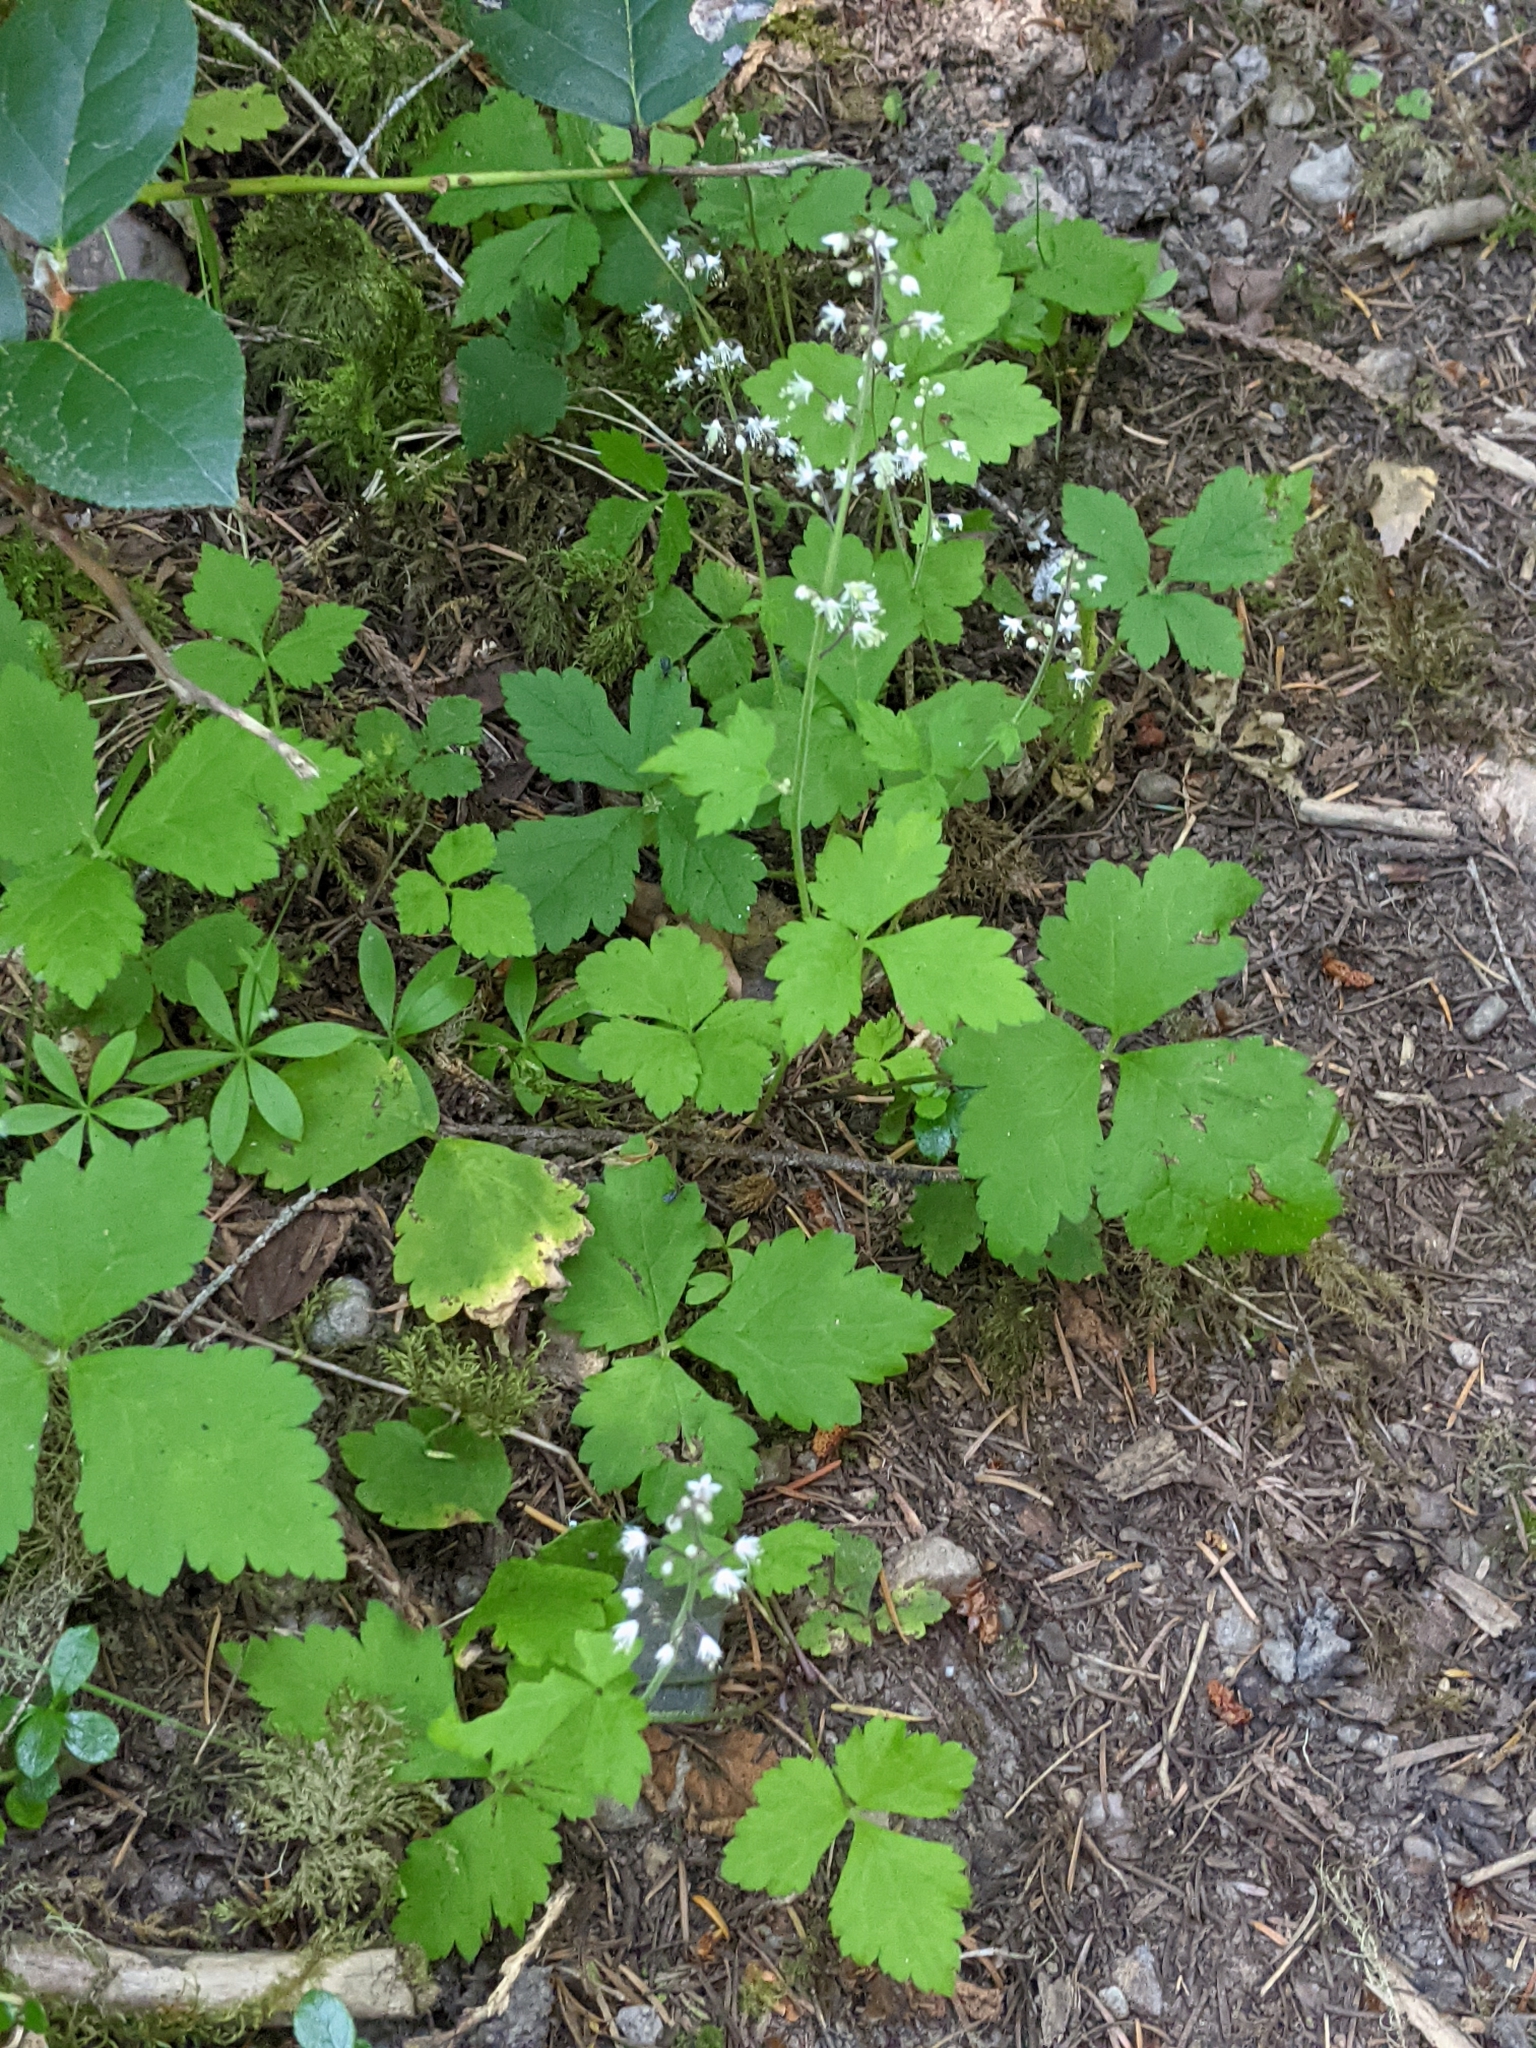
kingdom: Plantae
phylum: Tracheophyta
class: Magnoliopsida
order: Saxifragales
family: Saxifragaceae
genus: Tiarella
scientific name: Tiarella trifoliata
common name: Sugar-scoop
